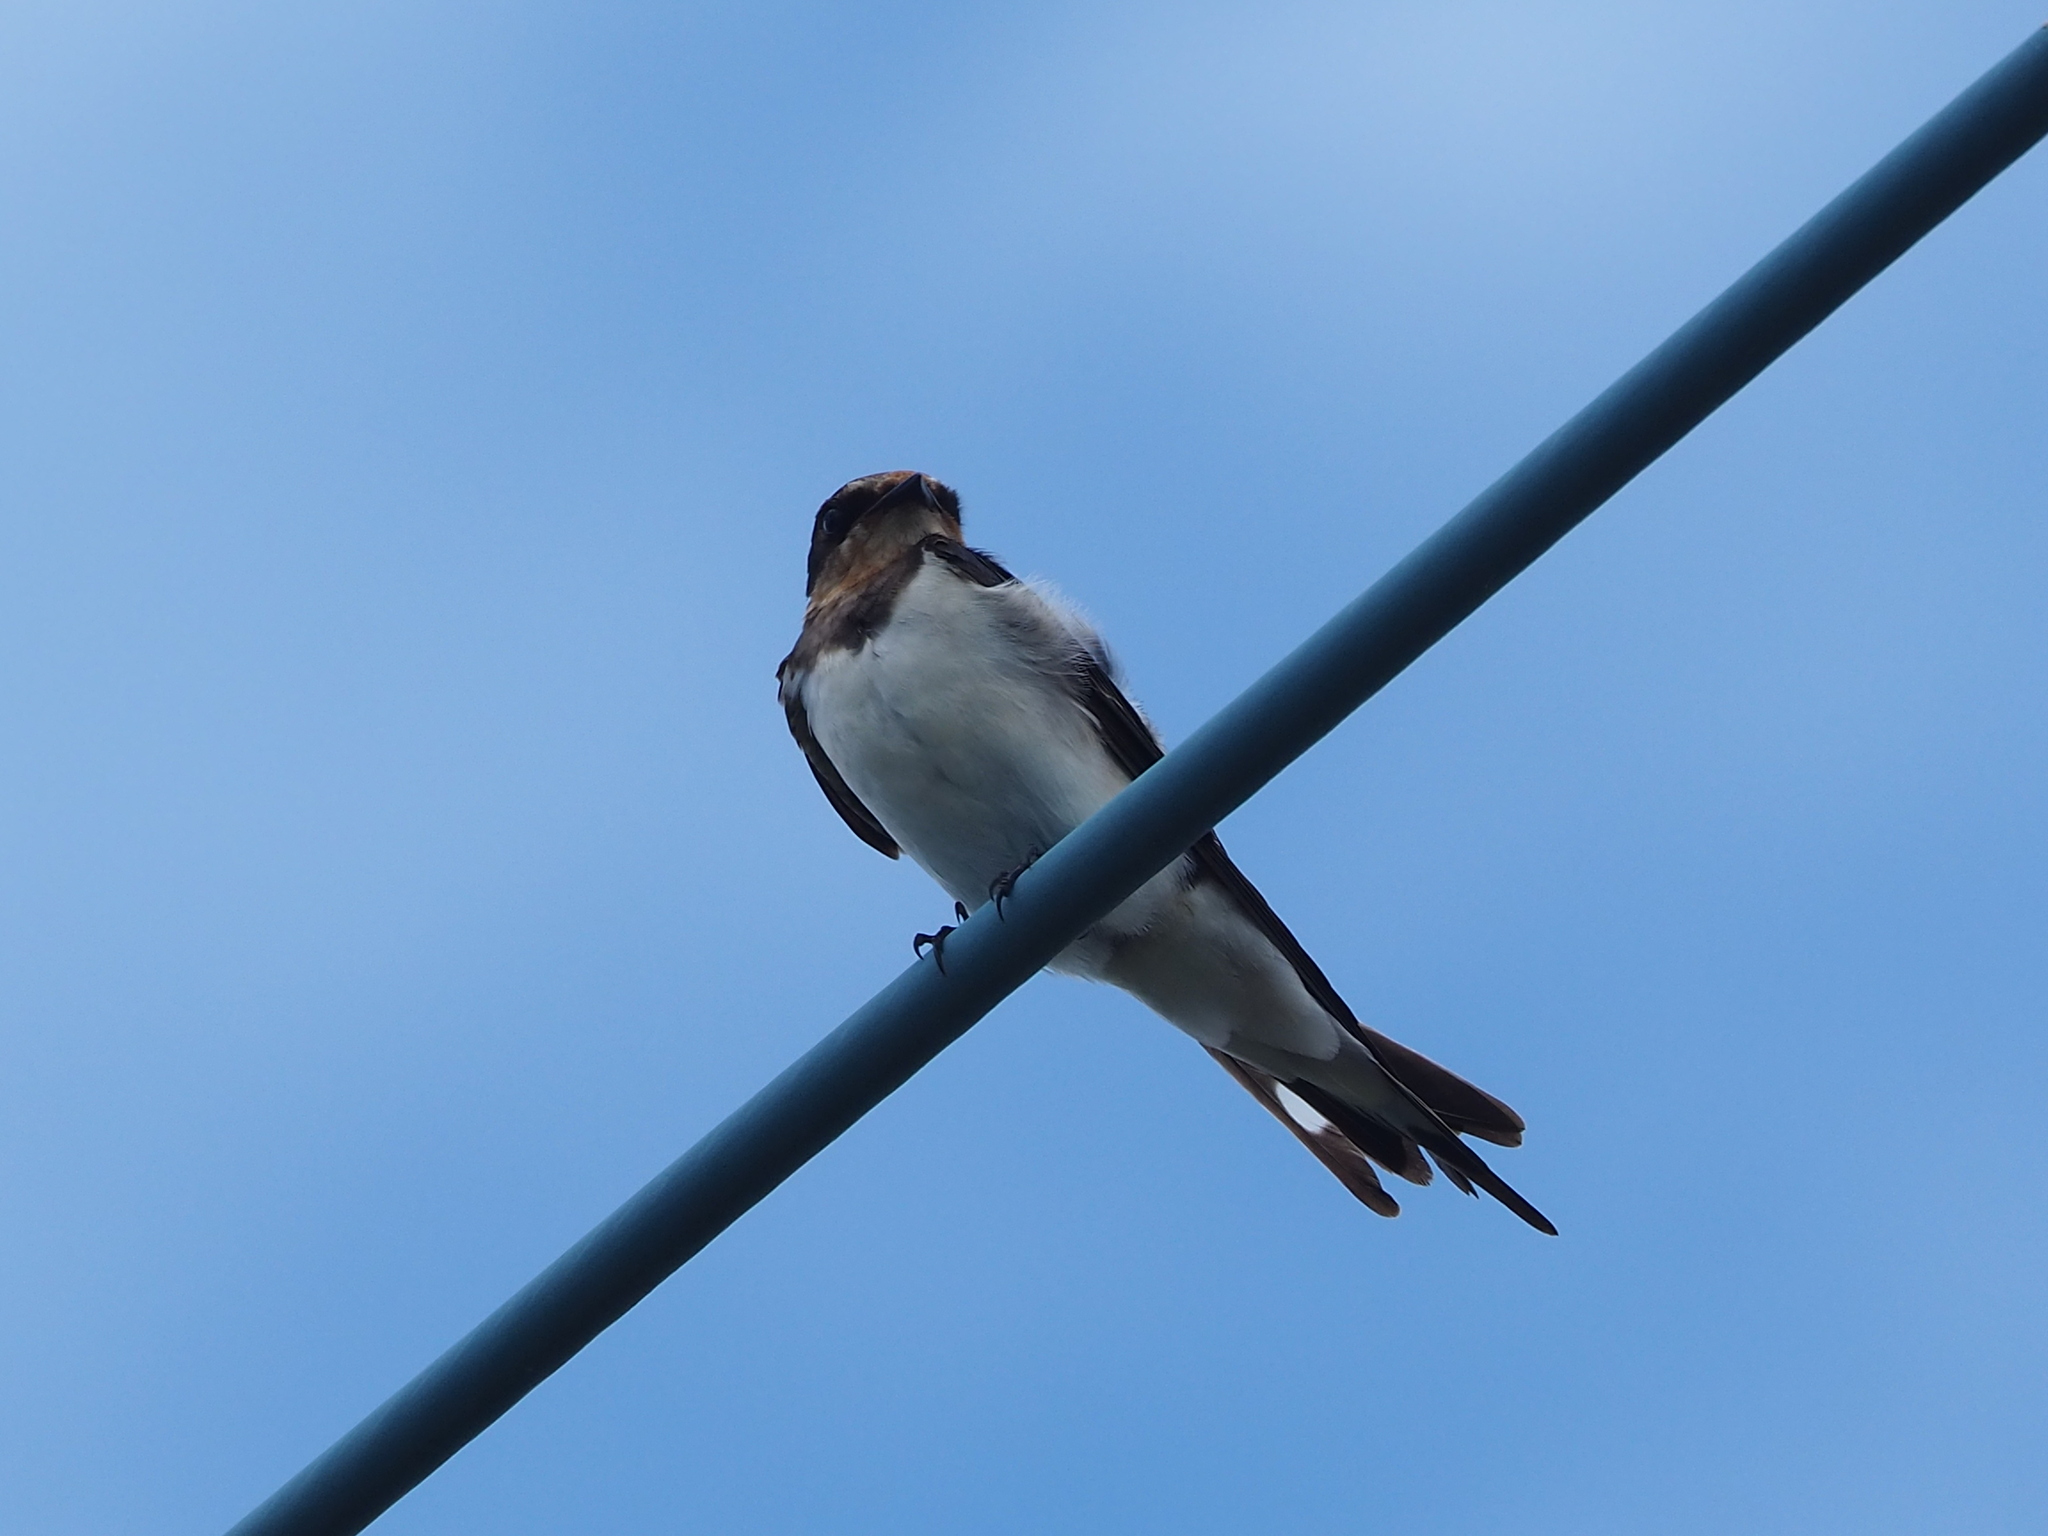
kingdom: Animalia
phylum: Chordata
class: Aves
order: Passeriformes
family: Hirundinidae
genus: Hirundo
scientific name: Hirundo rustica
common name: Barn swallow
